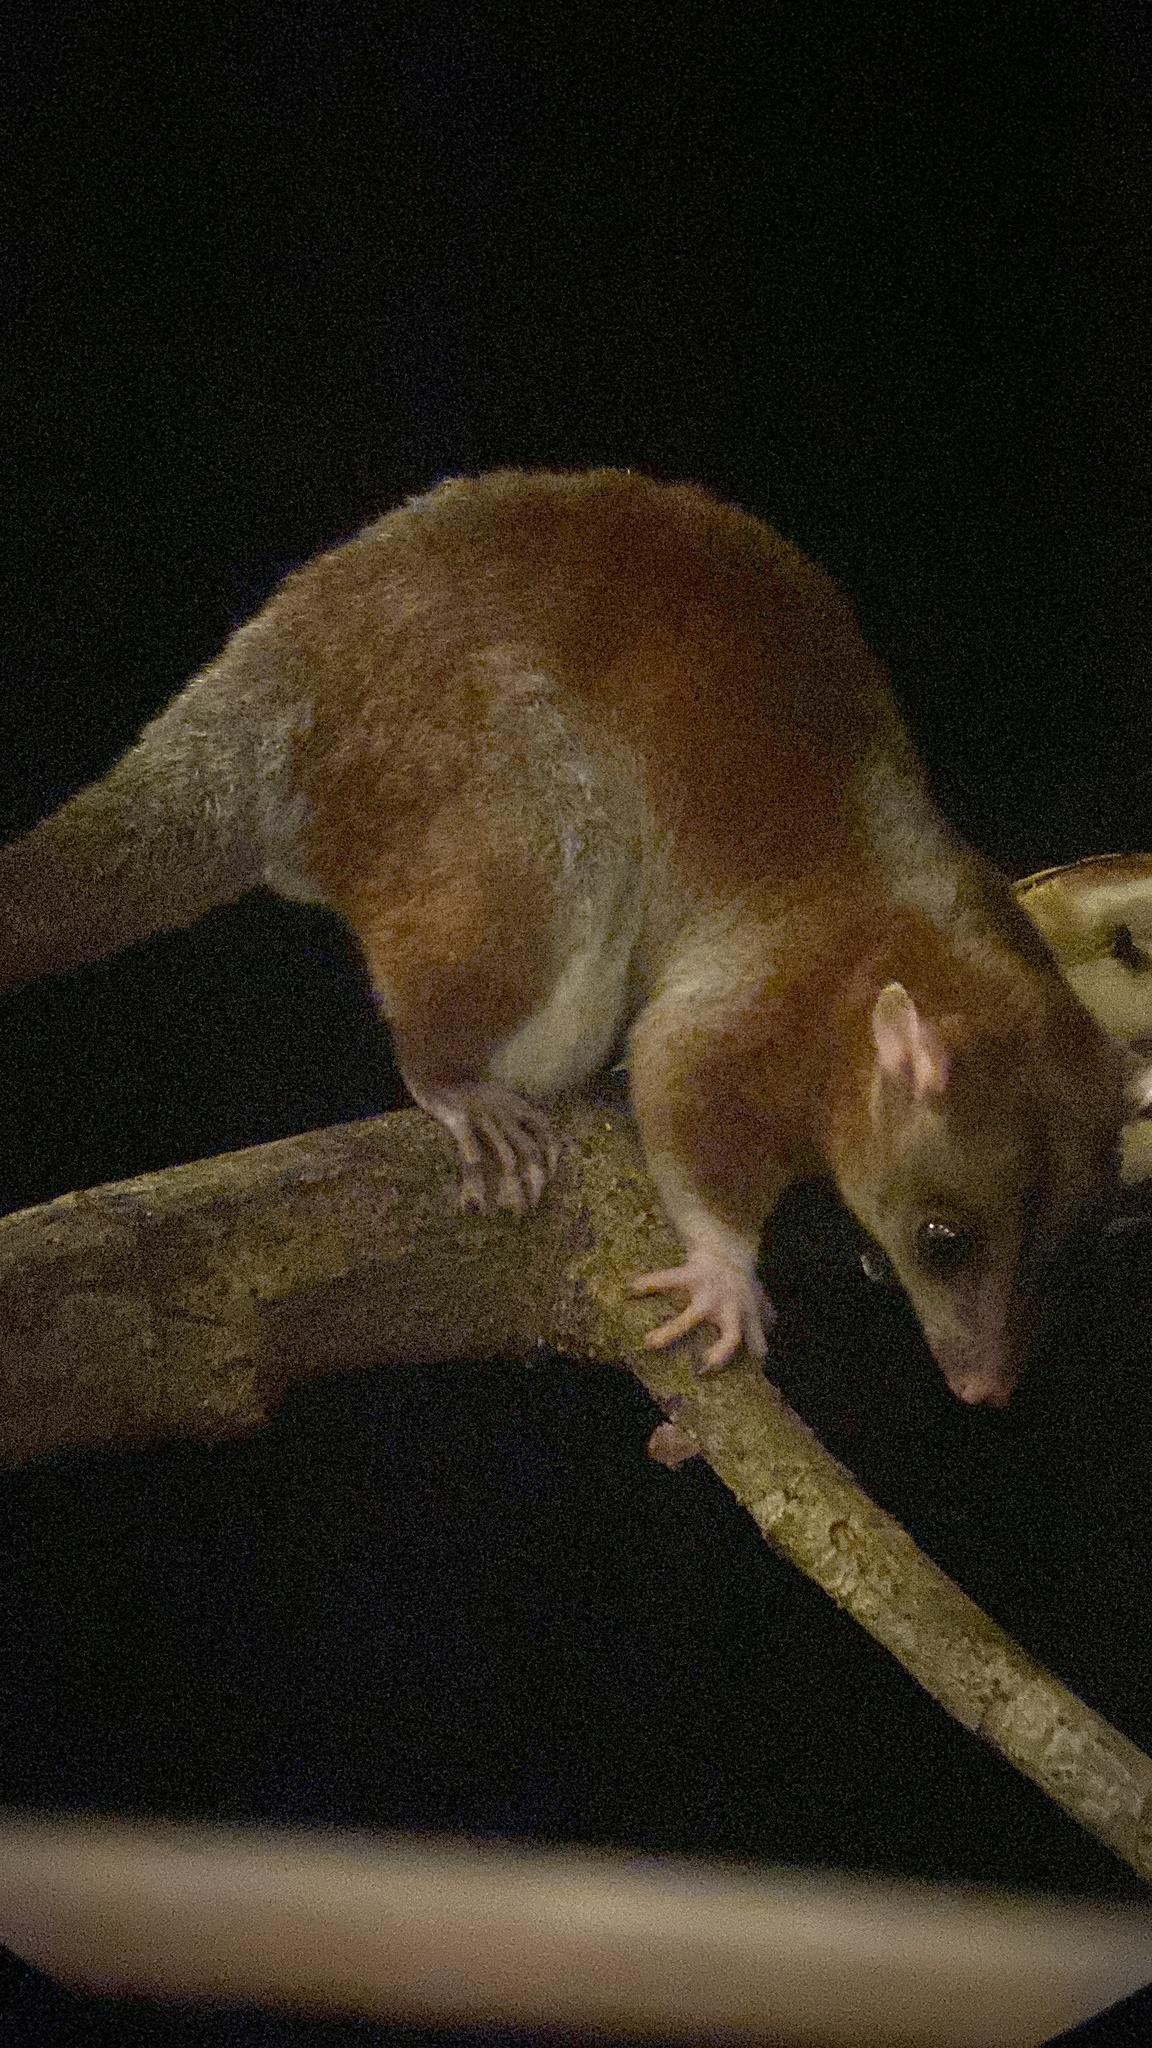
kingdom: Animalia
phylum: Chordata
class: Mammalia
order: Didelphimorphia
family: Didelphidae
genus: Caluromys
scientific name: Caluromys derbianus
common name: Derby's woolly opossum
